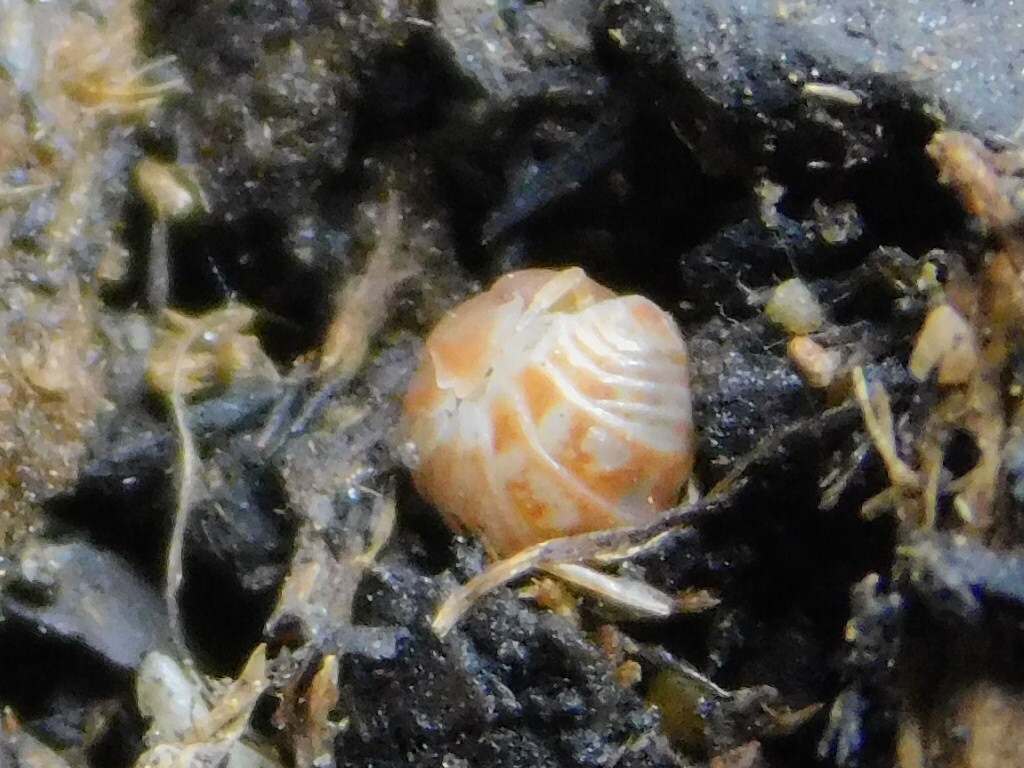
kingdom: Animalia
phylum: Arthropoda
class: Malacostraca
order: Isopoda
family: Armadillidae
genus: Venezillo
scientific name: Venezillo parvus
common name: Pillbug
